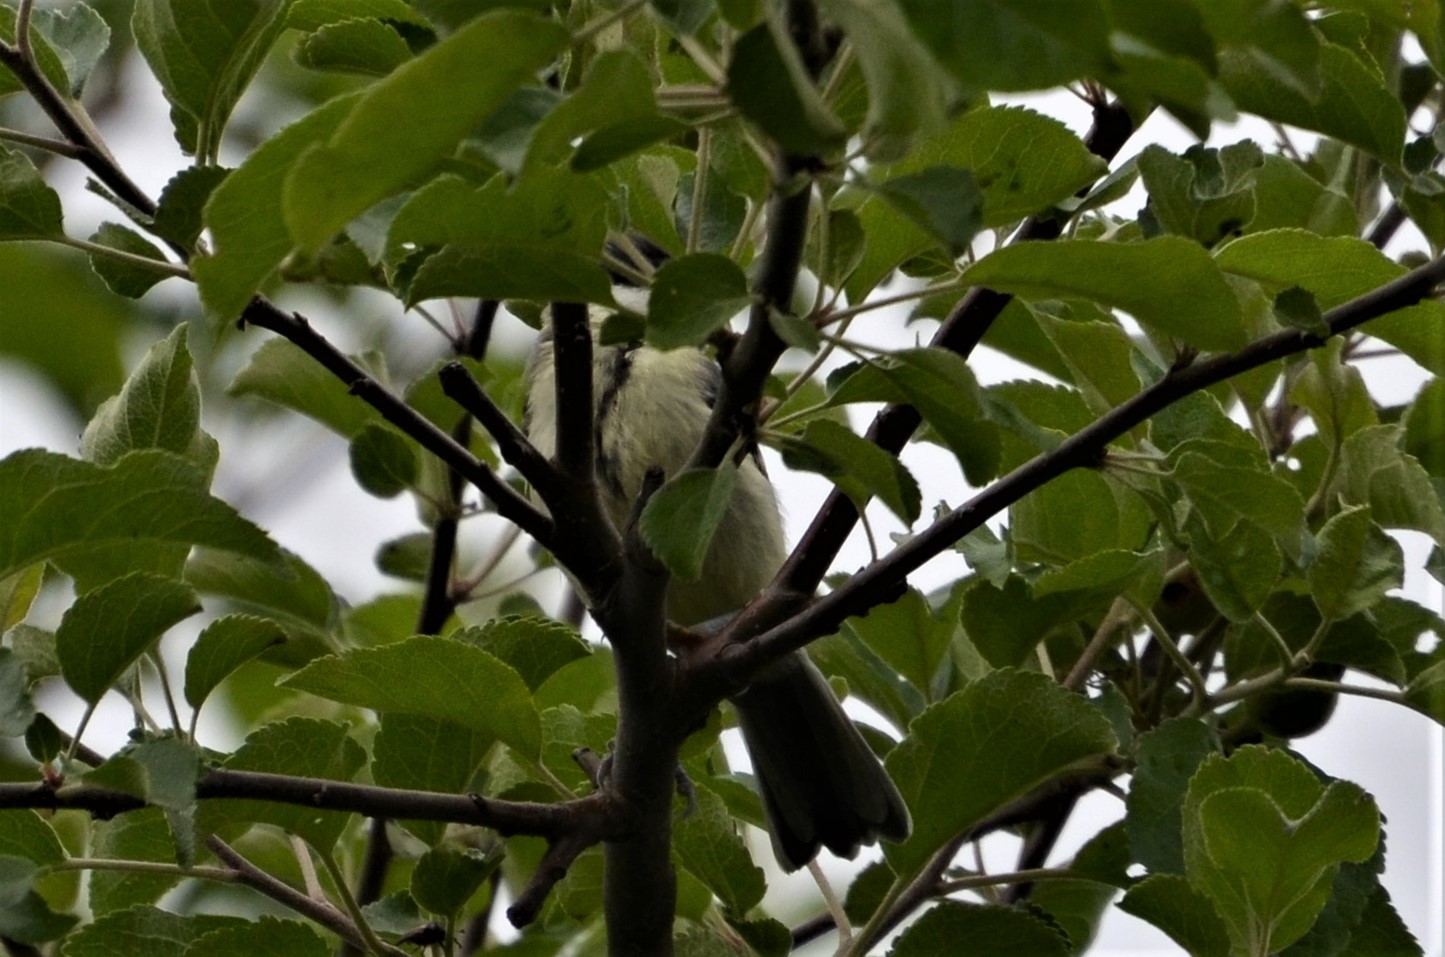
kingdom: Animalia
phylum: Chordata
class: Aves
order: Passeriformes
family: Paridae
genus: Parus
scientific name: Parus major
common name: Great tit
